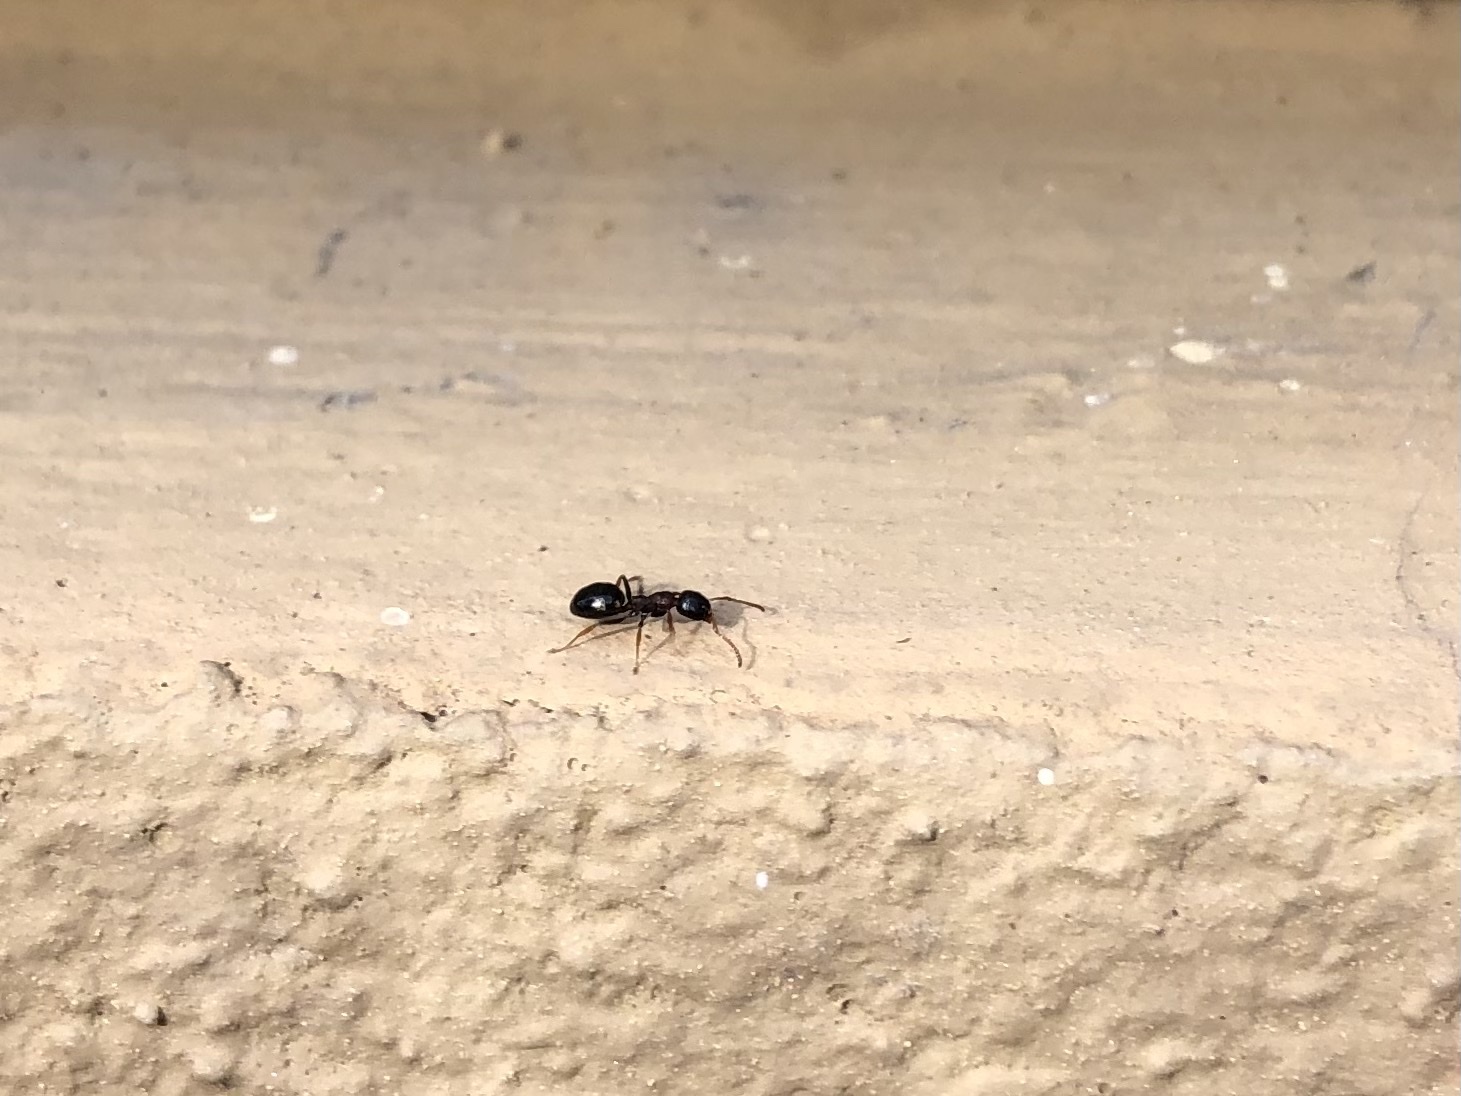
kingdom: Animalia
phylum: Arthropoda
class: Insecta
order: Hymenoptera
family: Formicidae
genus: Dolichoderus
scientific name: Dolichoderus quadripunctatus
